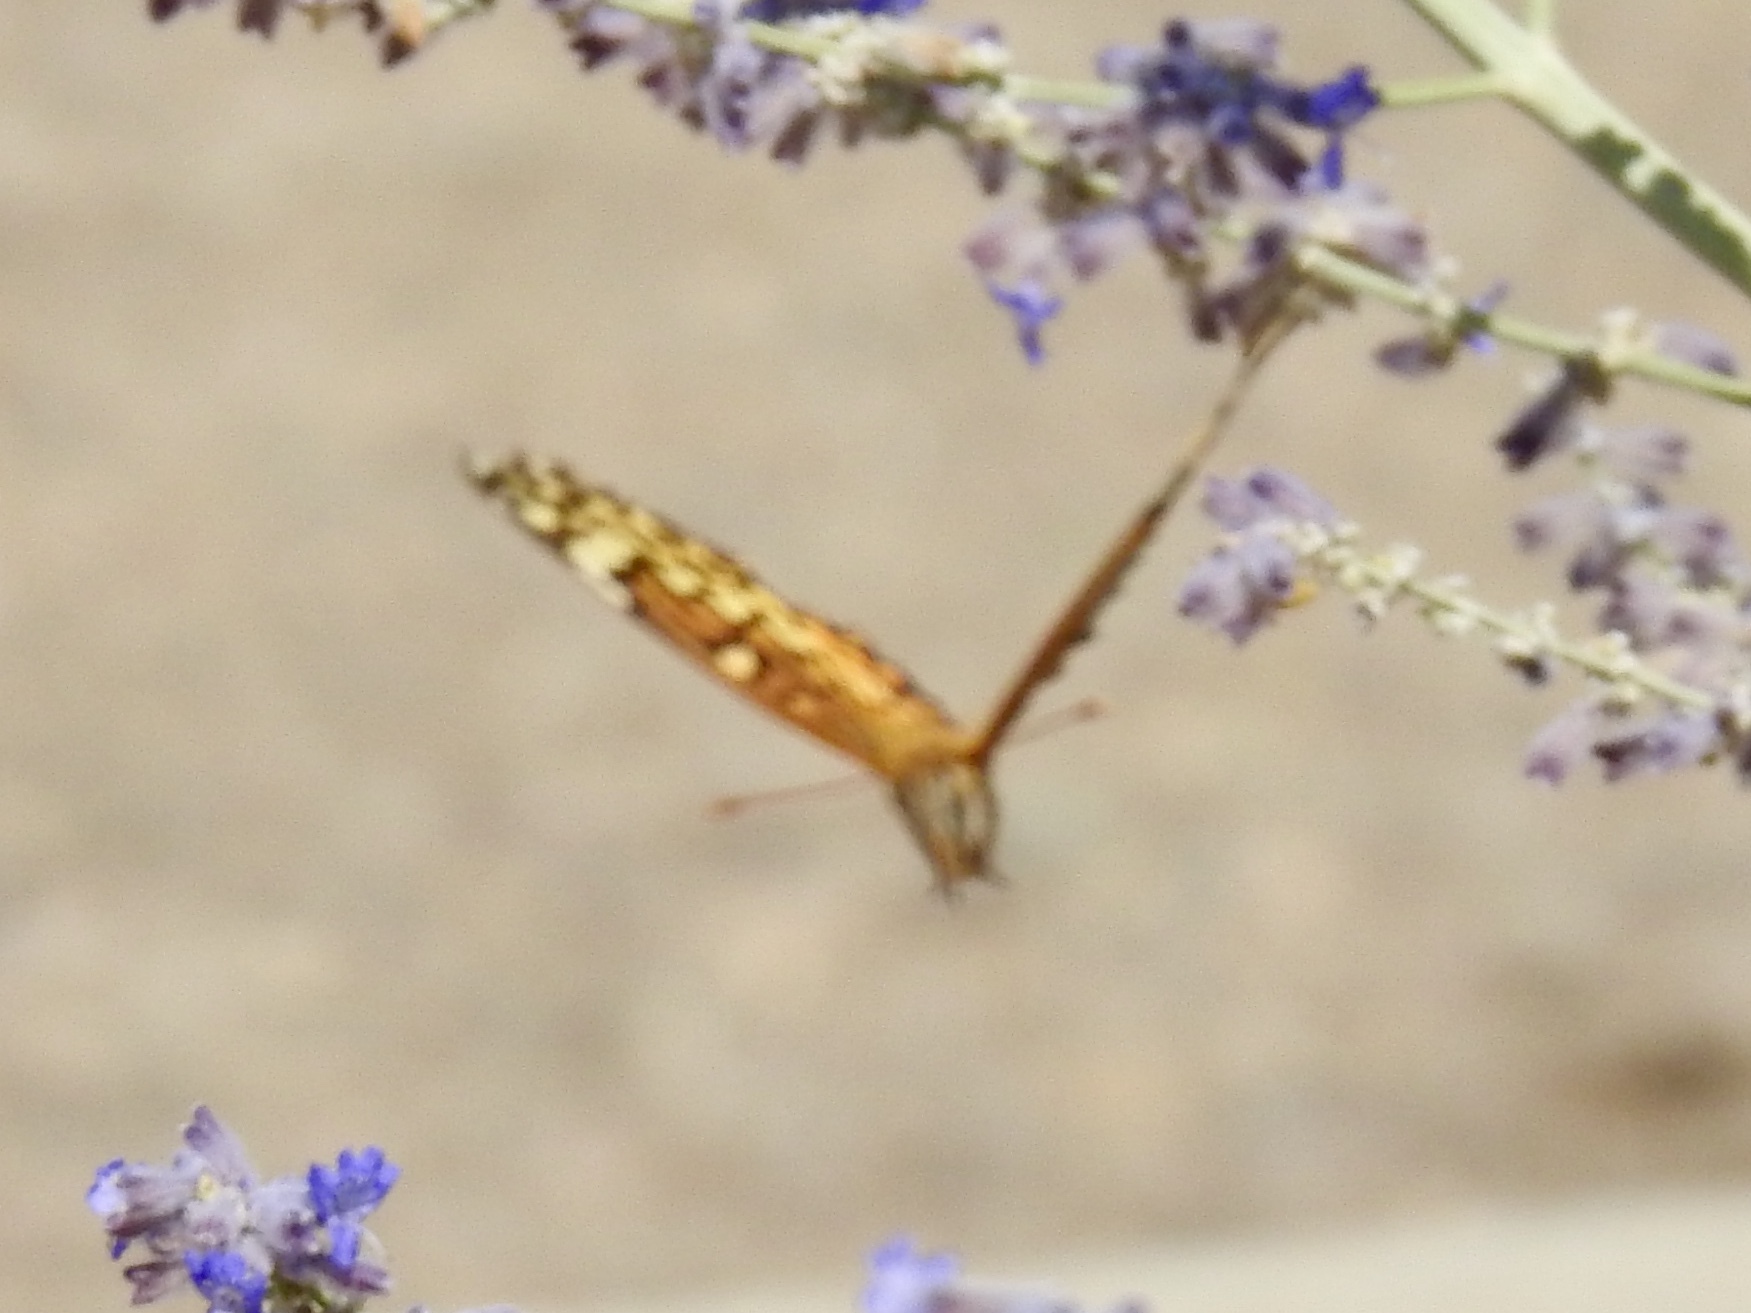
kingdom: Animalia
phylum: Arthropoda
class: Insecta
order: Lepidoptera
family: Nymphalidae
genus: Euptoieta
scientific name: Euptoieta claudia
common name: Variegated fritillary
